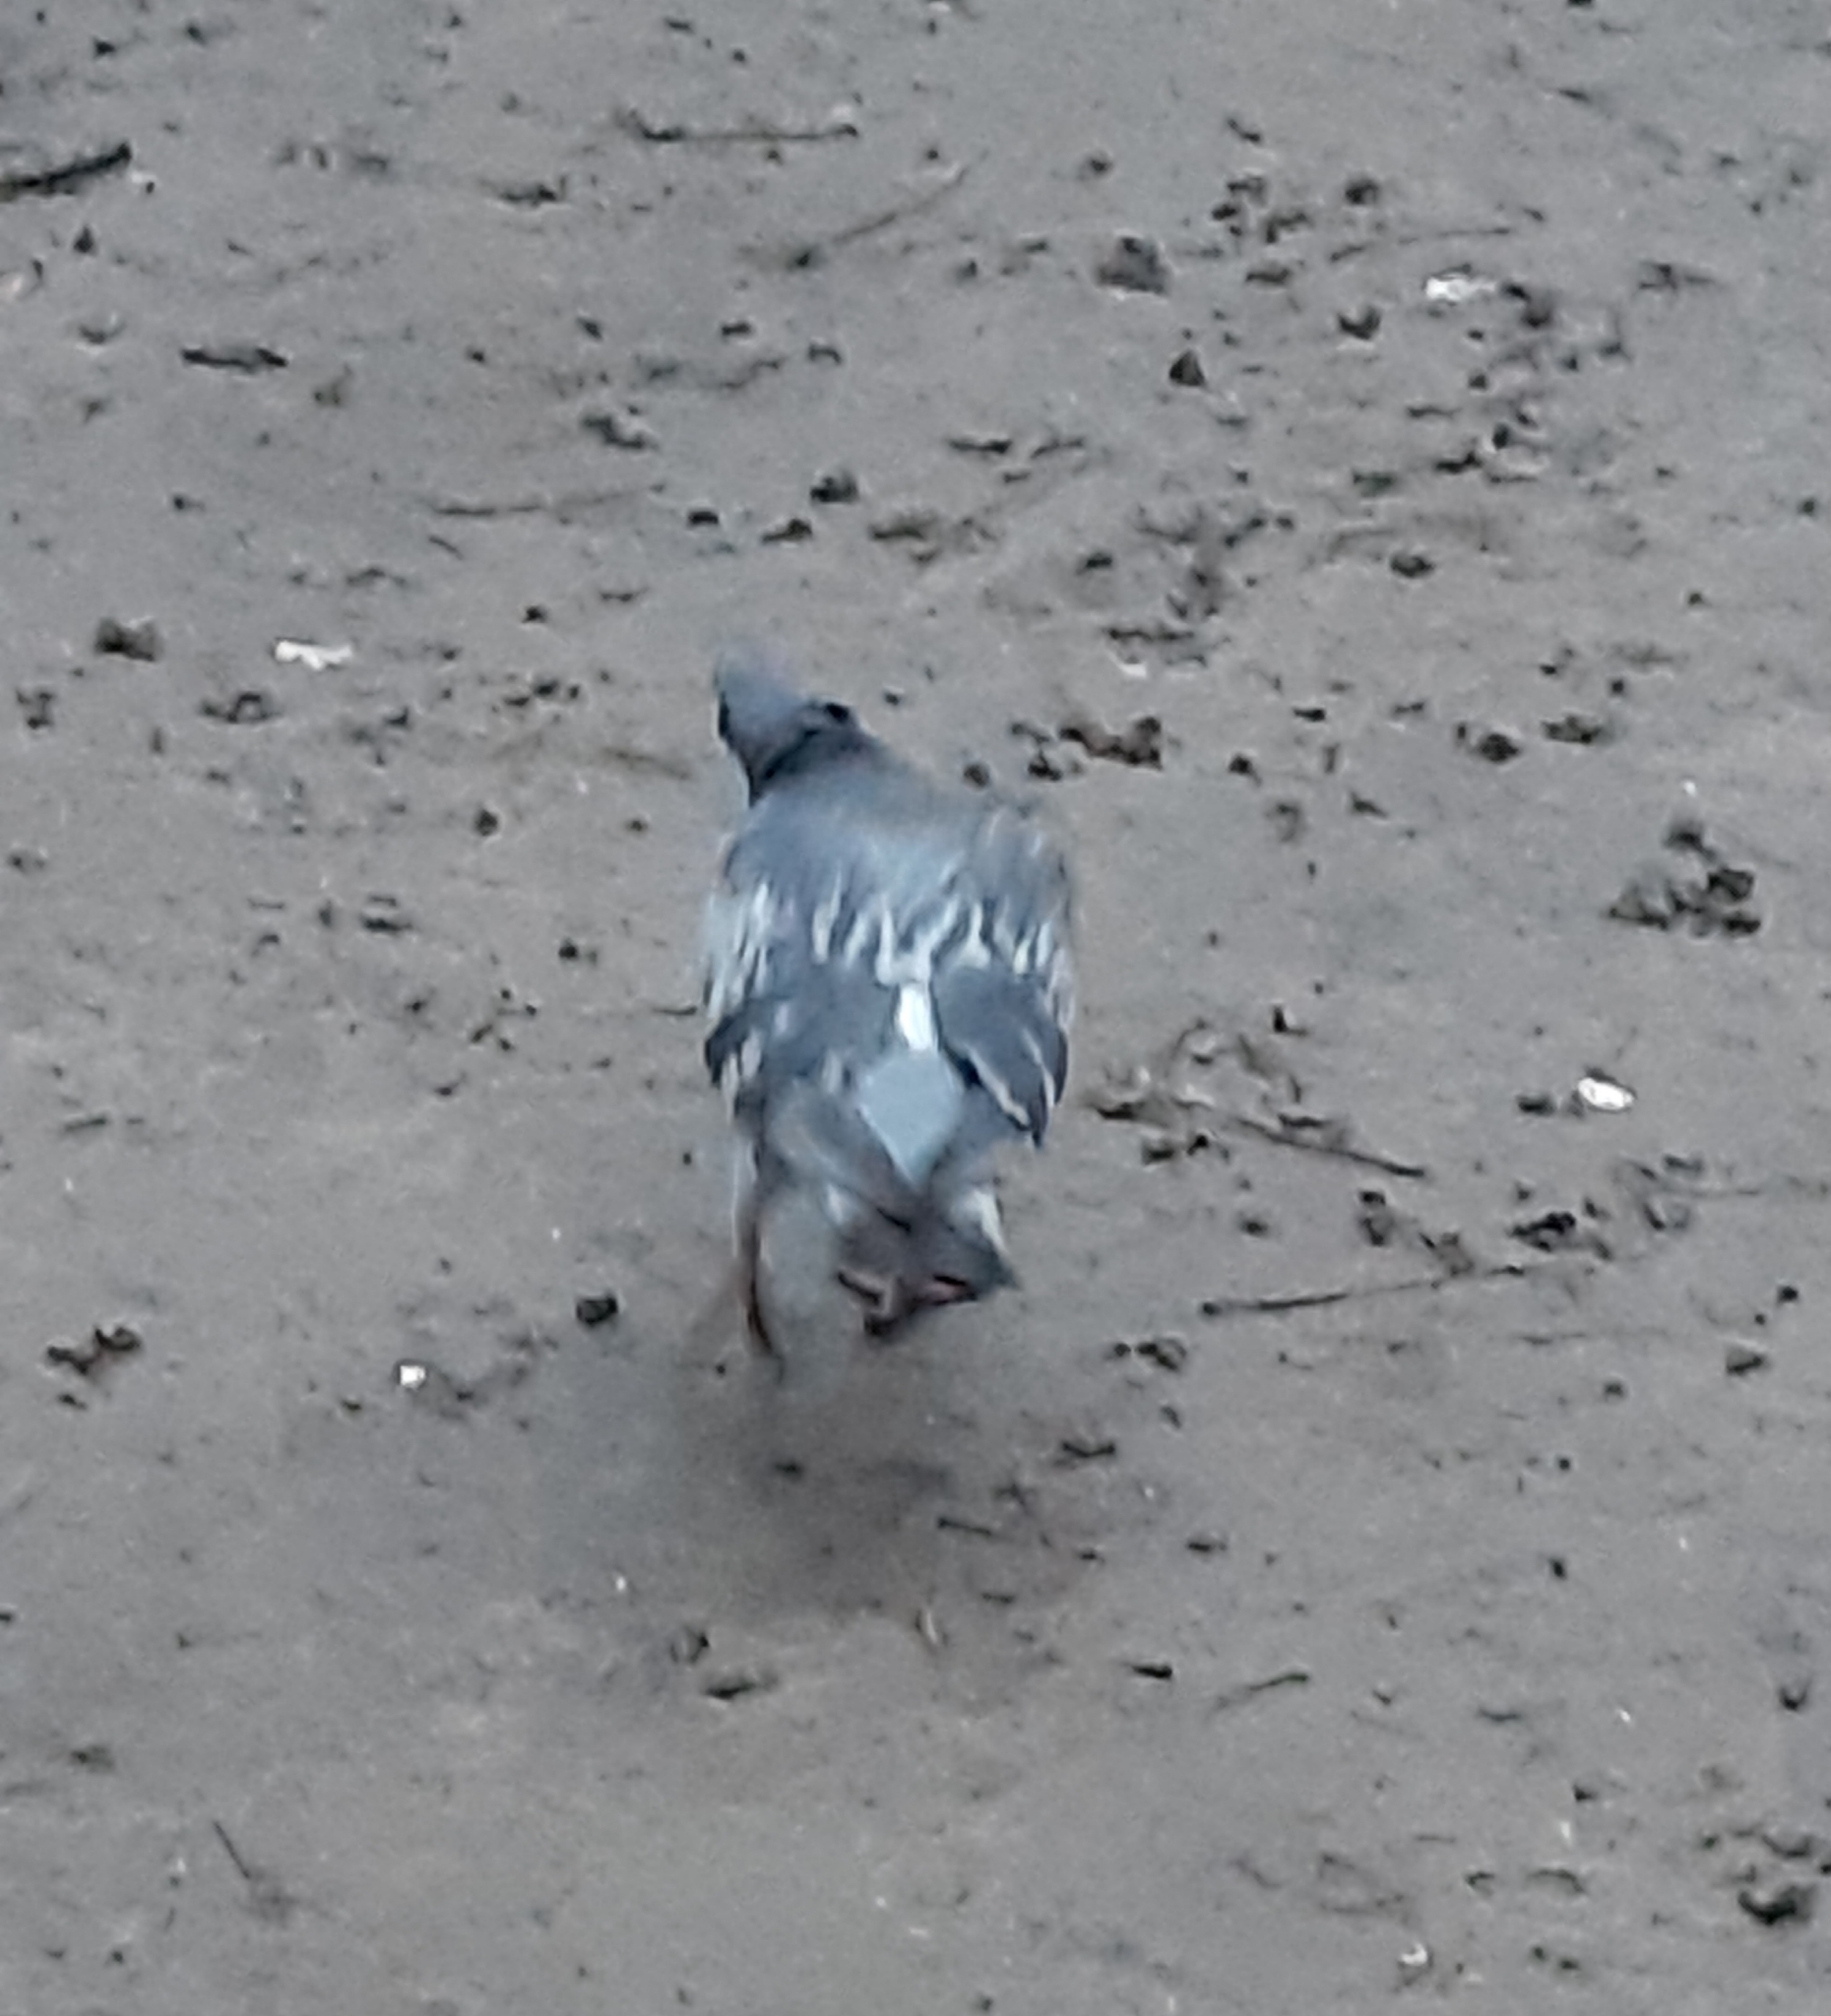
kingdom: Animalia
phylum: Chordata
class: Aves
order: Columbiformes
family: Columbidae
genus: Columba
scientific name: Columba livia
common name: Rock pigeon
